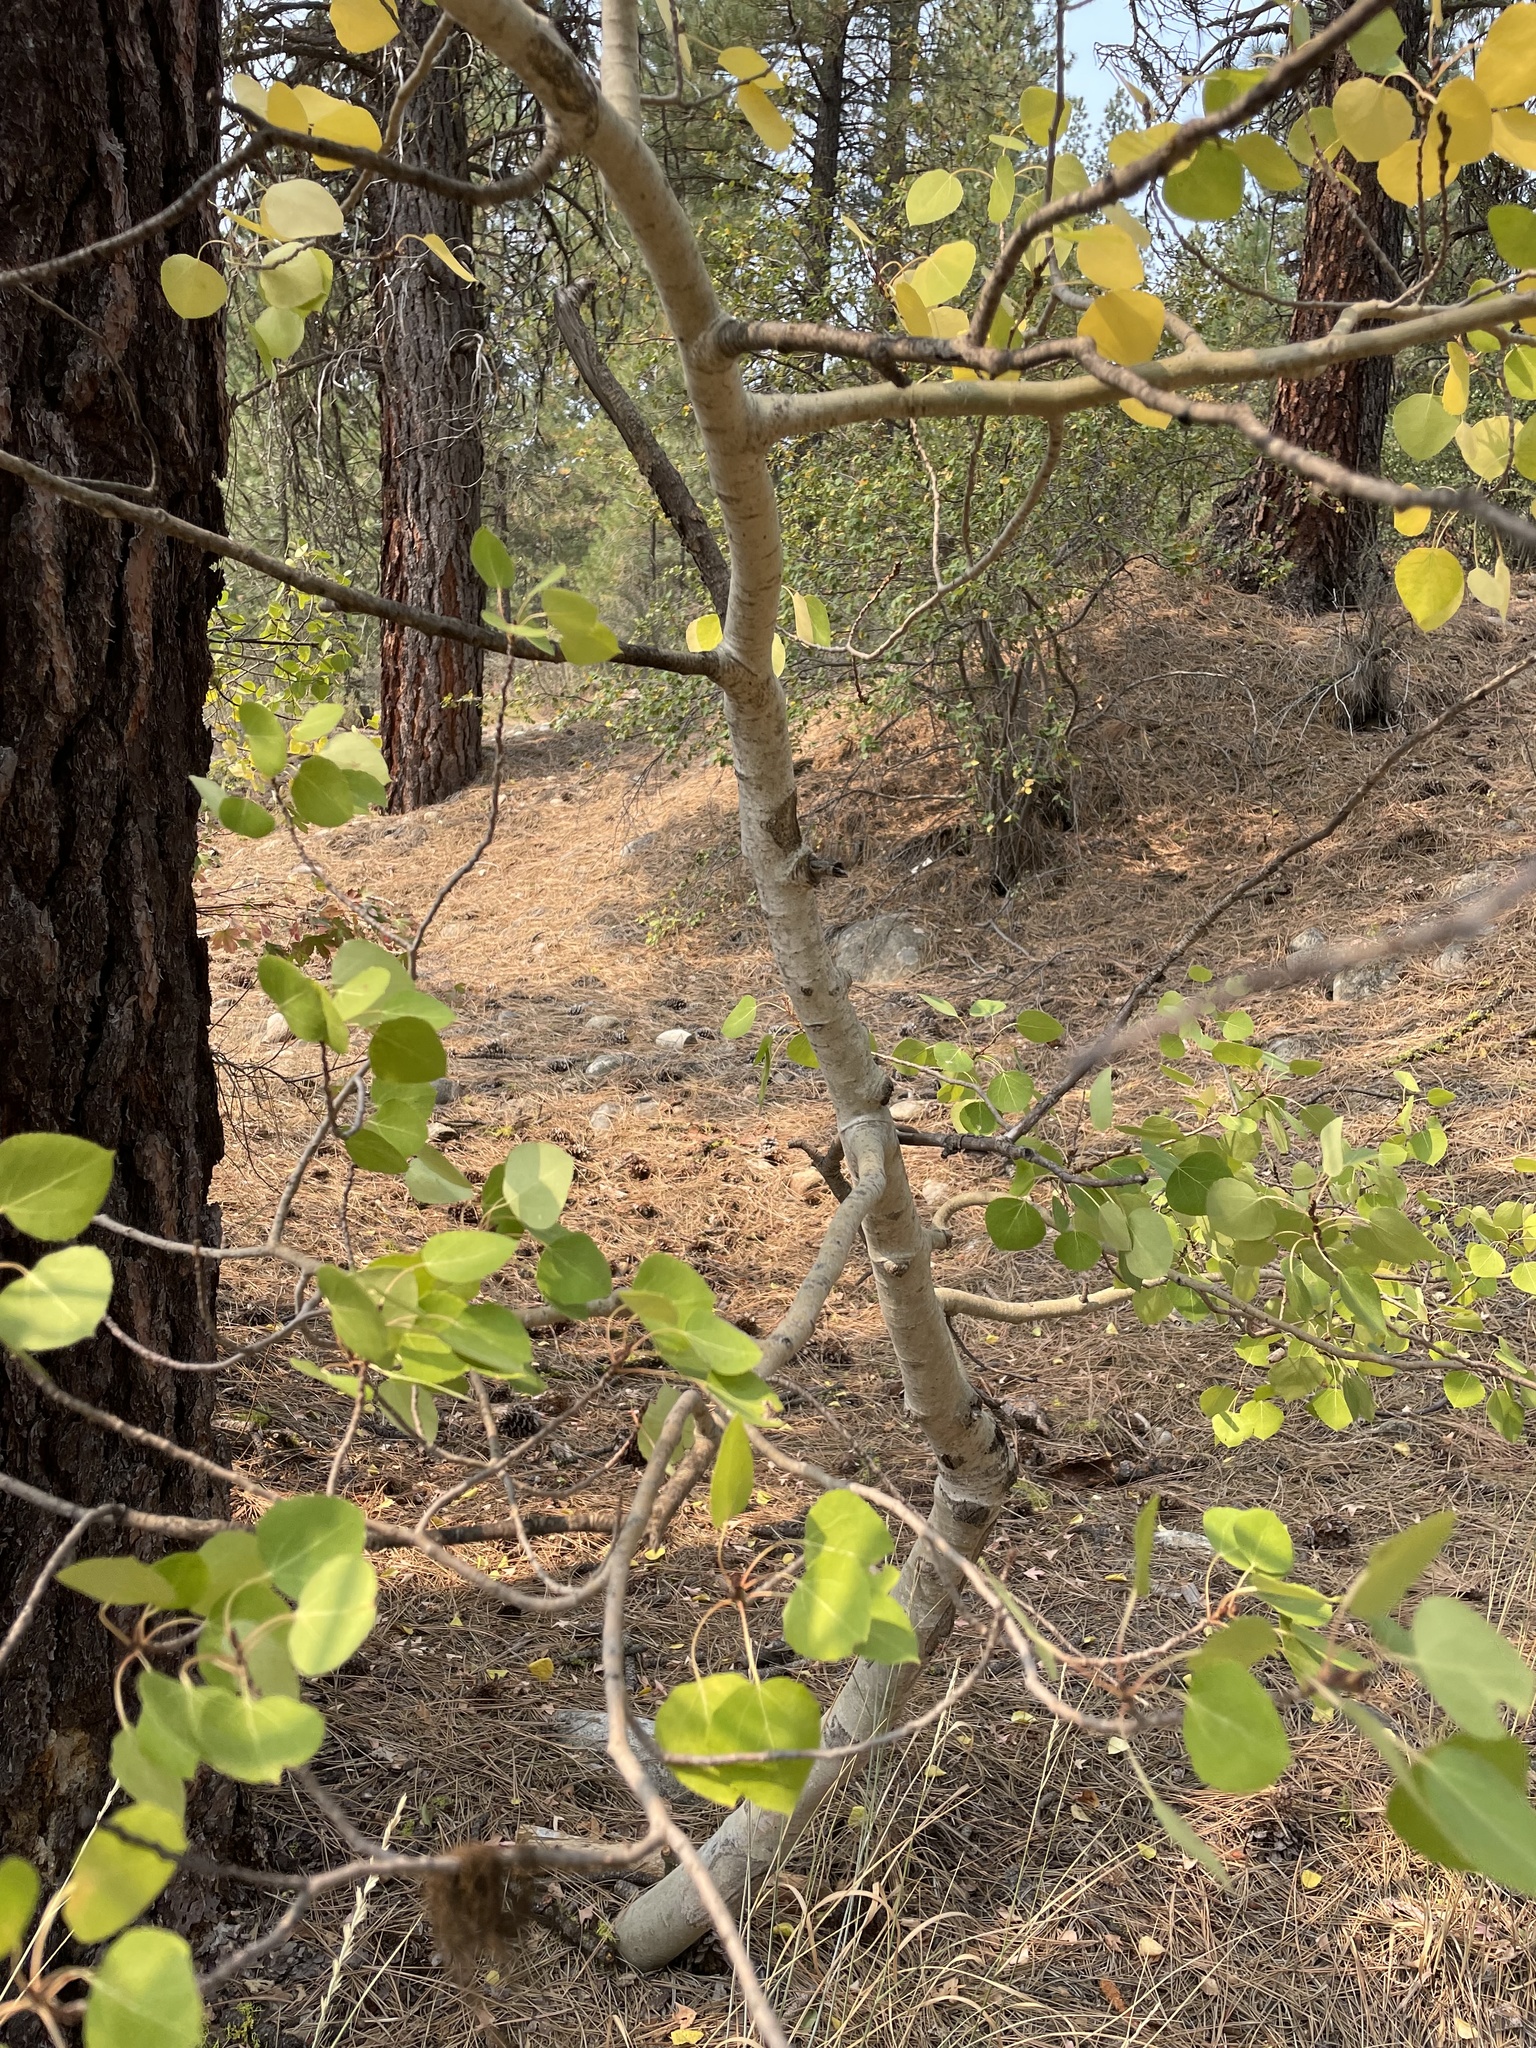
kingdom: Plantae
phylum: Tracheophyta
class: Magnoliopsida
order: Malpighiales
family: Salicaceae
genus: Populus
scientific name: Populus tremuloides
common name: Quaking aspen
